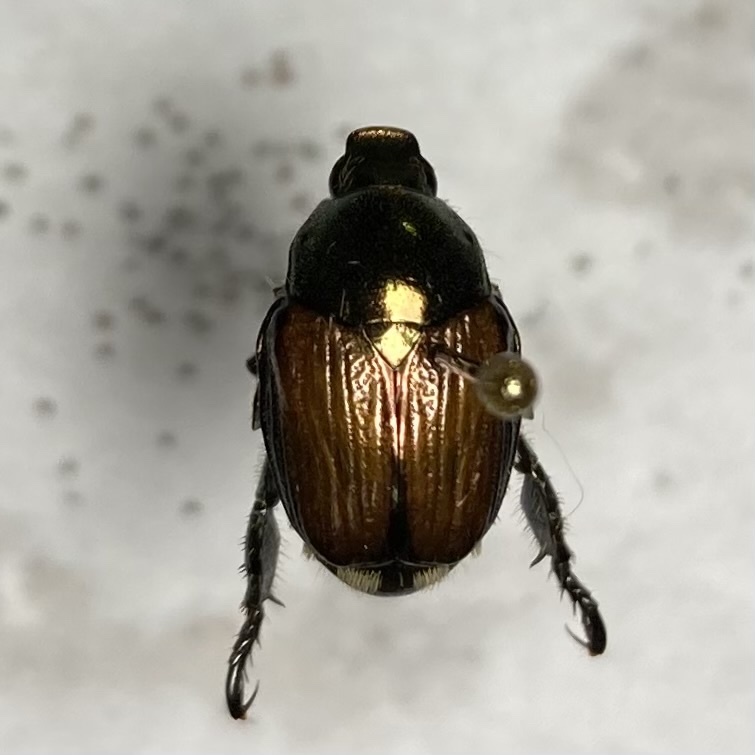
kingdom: Animalia
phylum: Arthropoda
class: Insecta
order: Coleoptera
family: Scarabaeidae
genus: Popillia
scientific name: Popillia japonica
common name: Japanese beetle
